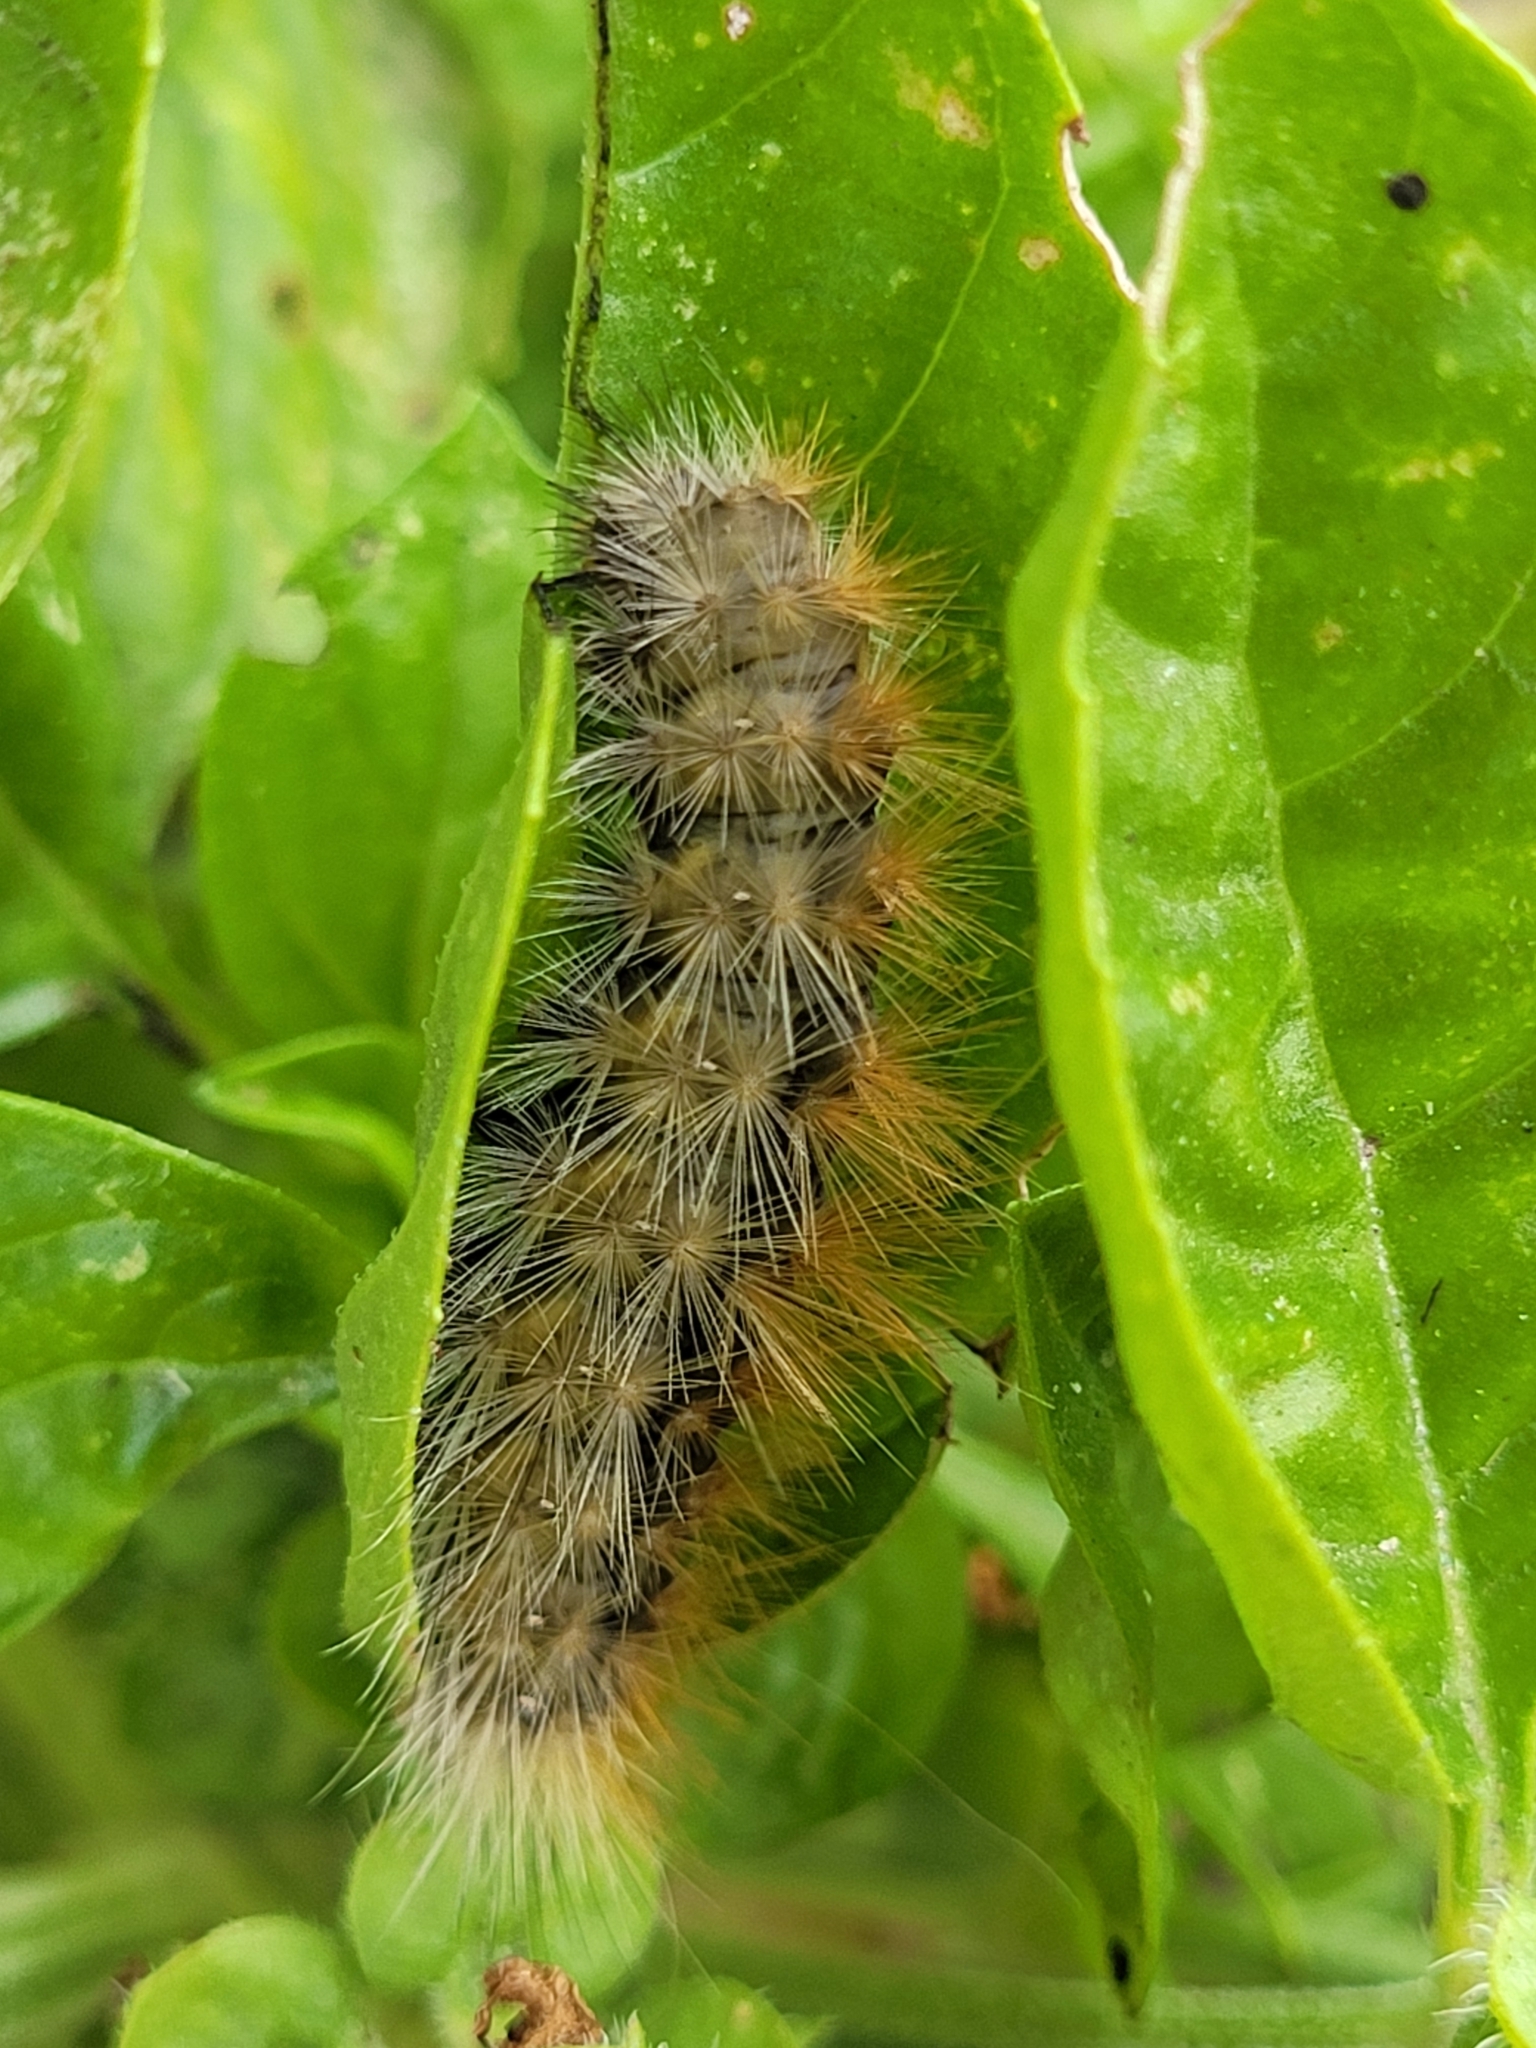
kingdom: Animalia
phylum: Arthropoda
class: Insecta
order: Lepidoptera
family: Erebidae
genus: Spilosoma
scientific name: Spilosoma virginica
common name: Virginia tiger moth
